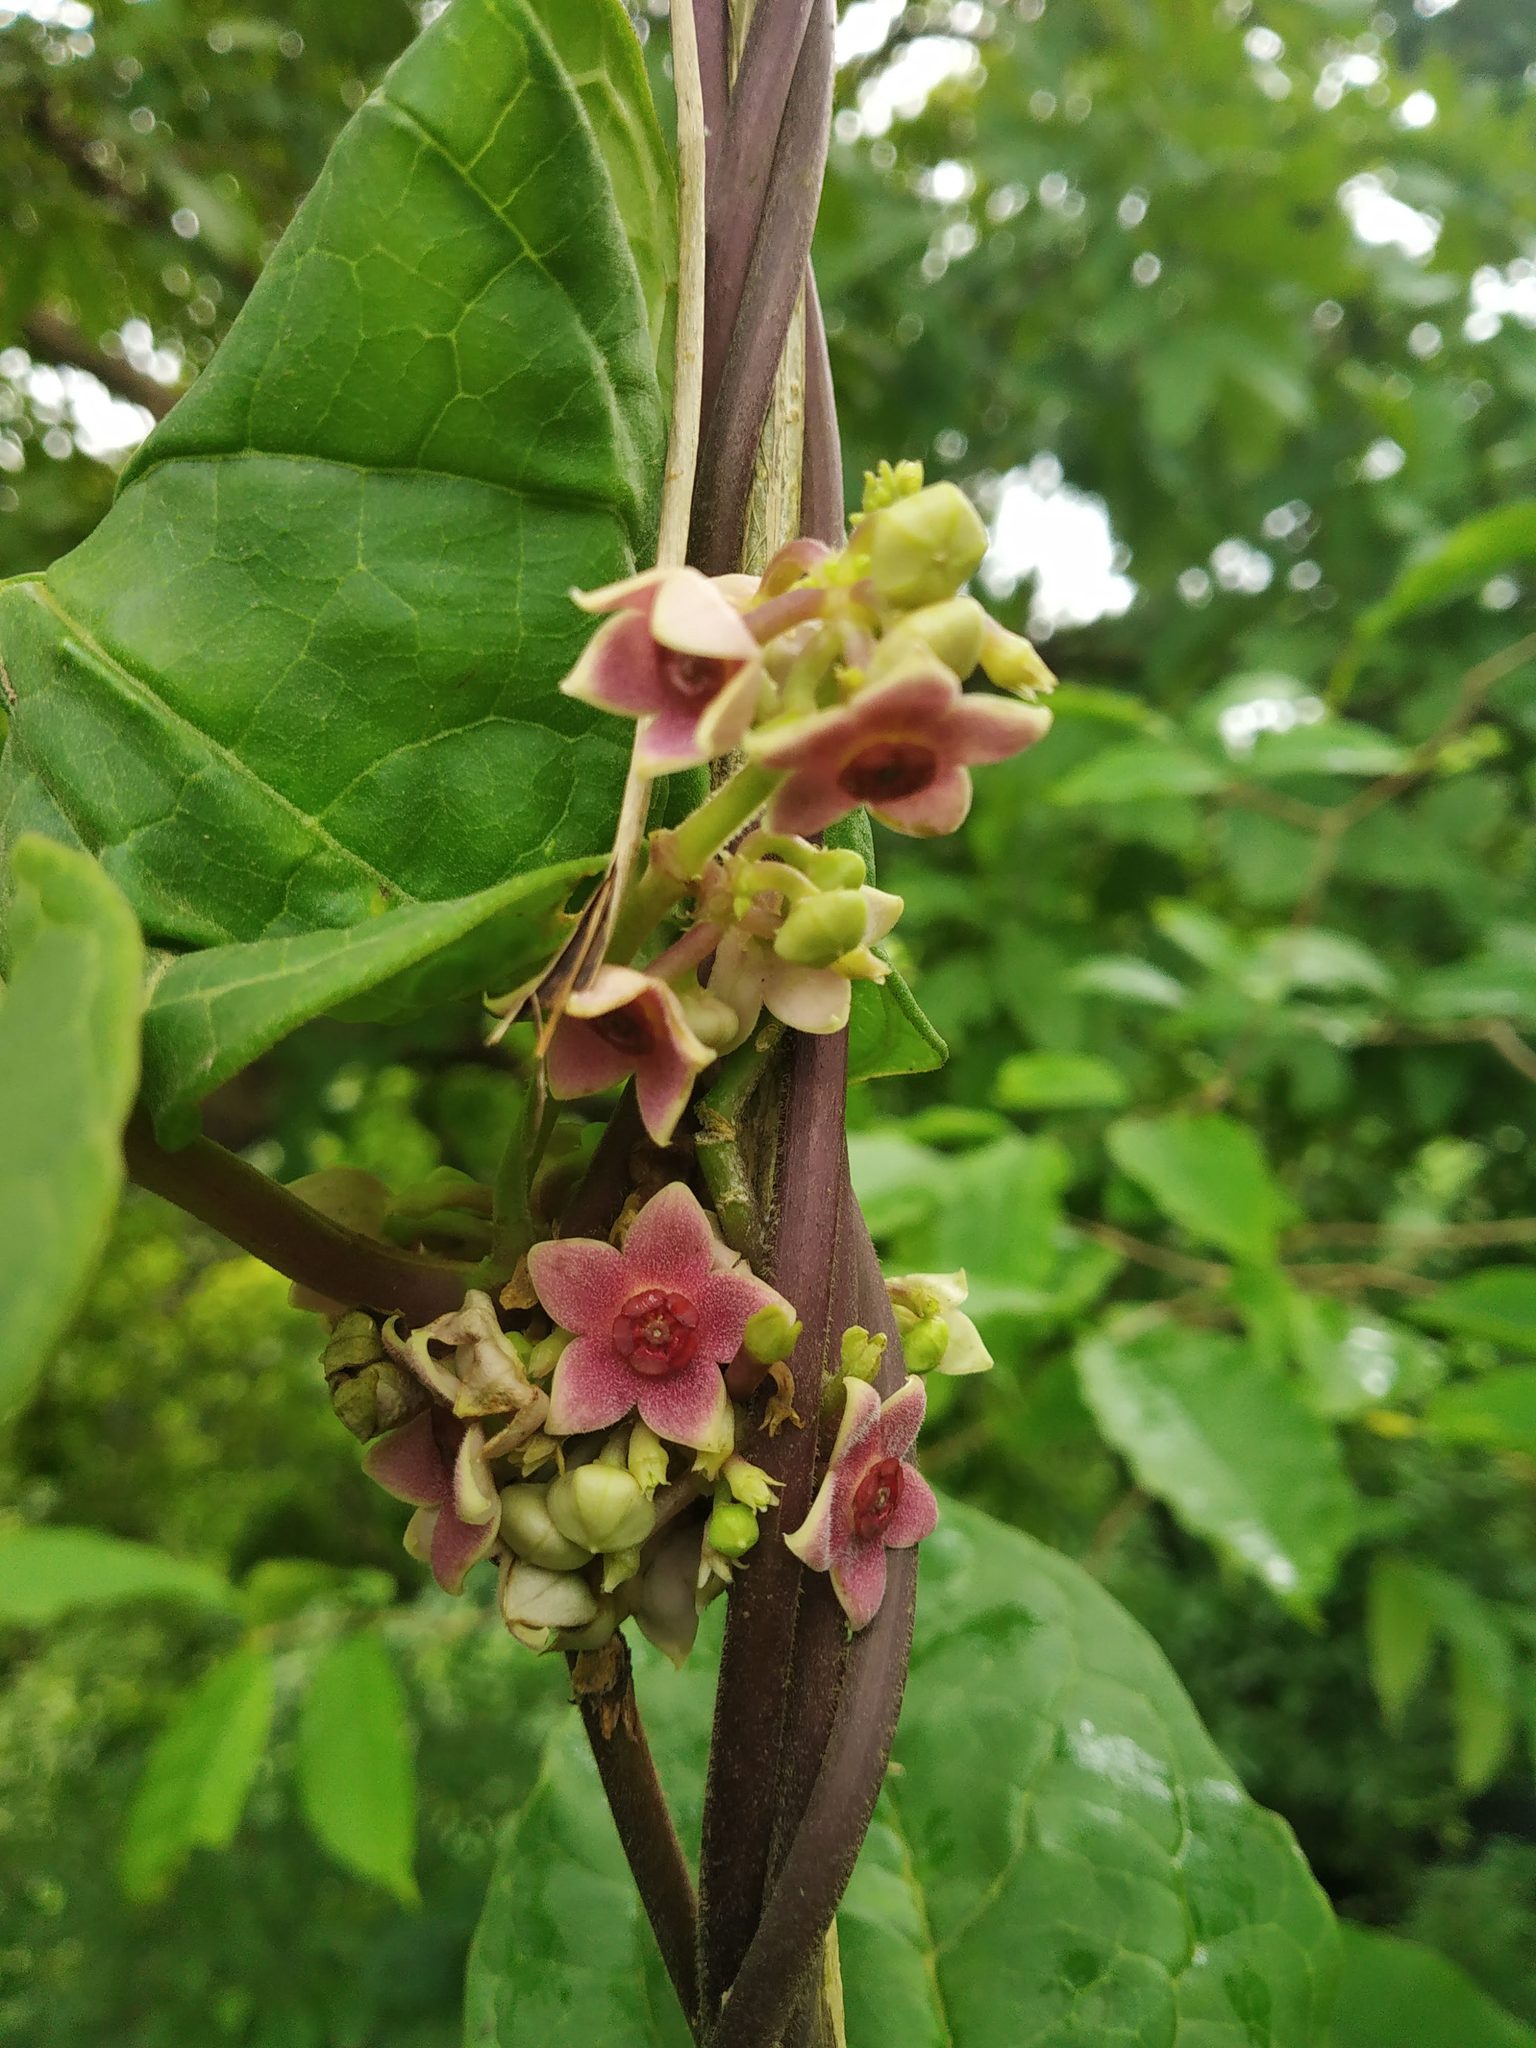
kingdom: Plantae
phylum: Tracheophyta
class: Magnoliopsida
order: Gentianales
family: Apocynaceae
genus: Heterostemma
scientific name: Heterostemma dalzellii
